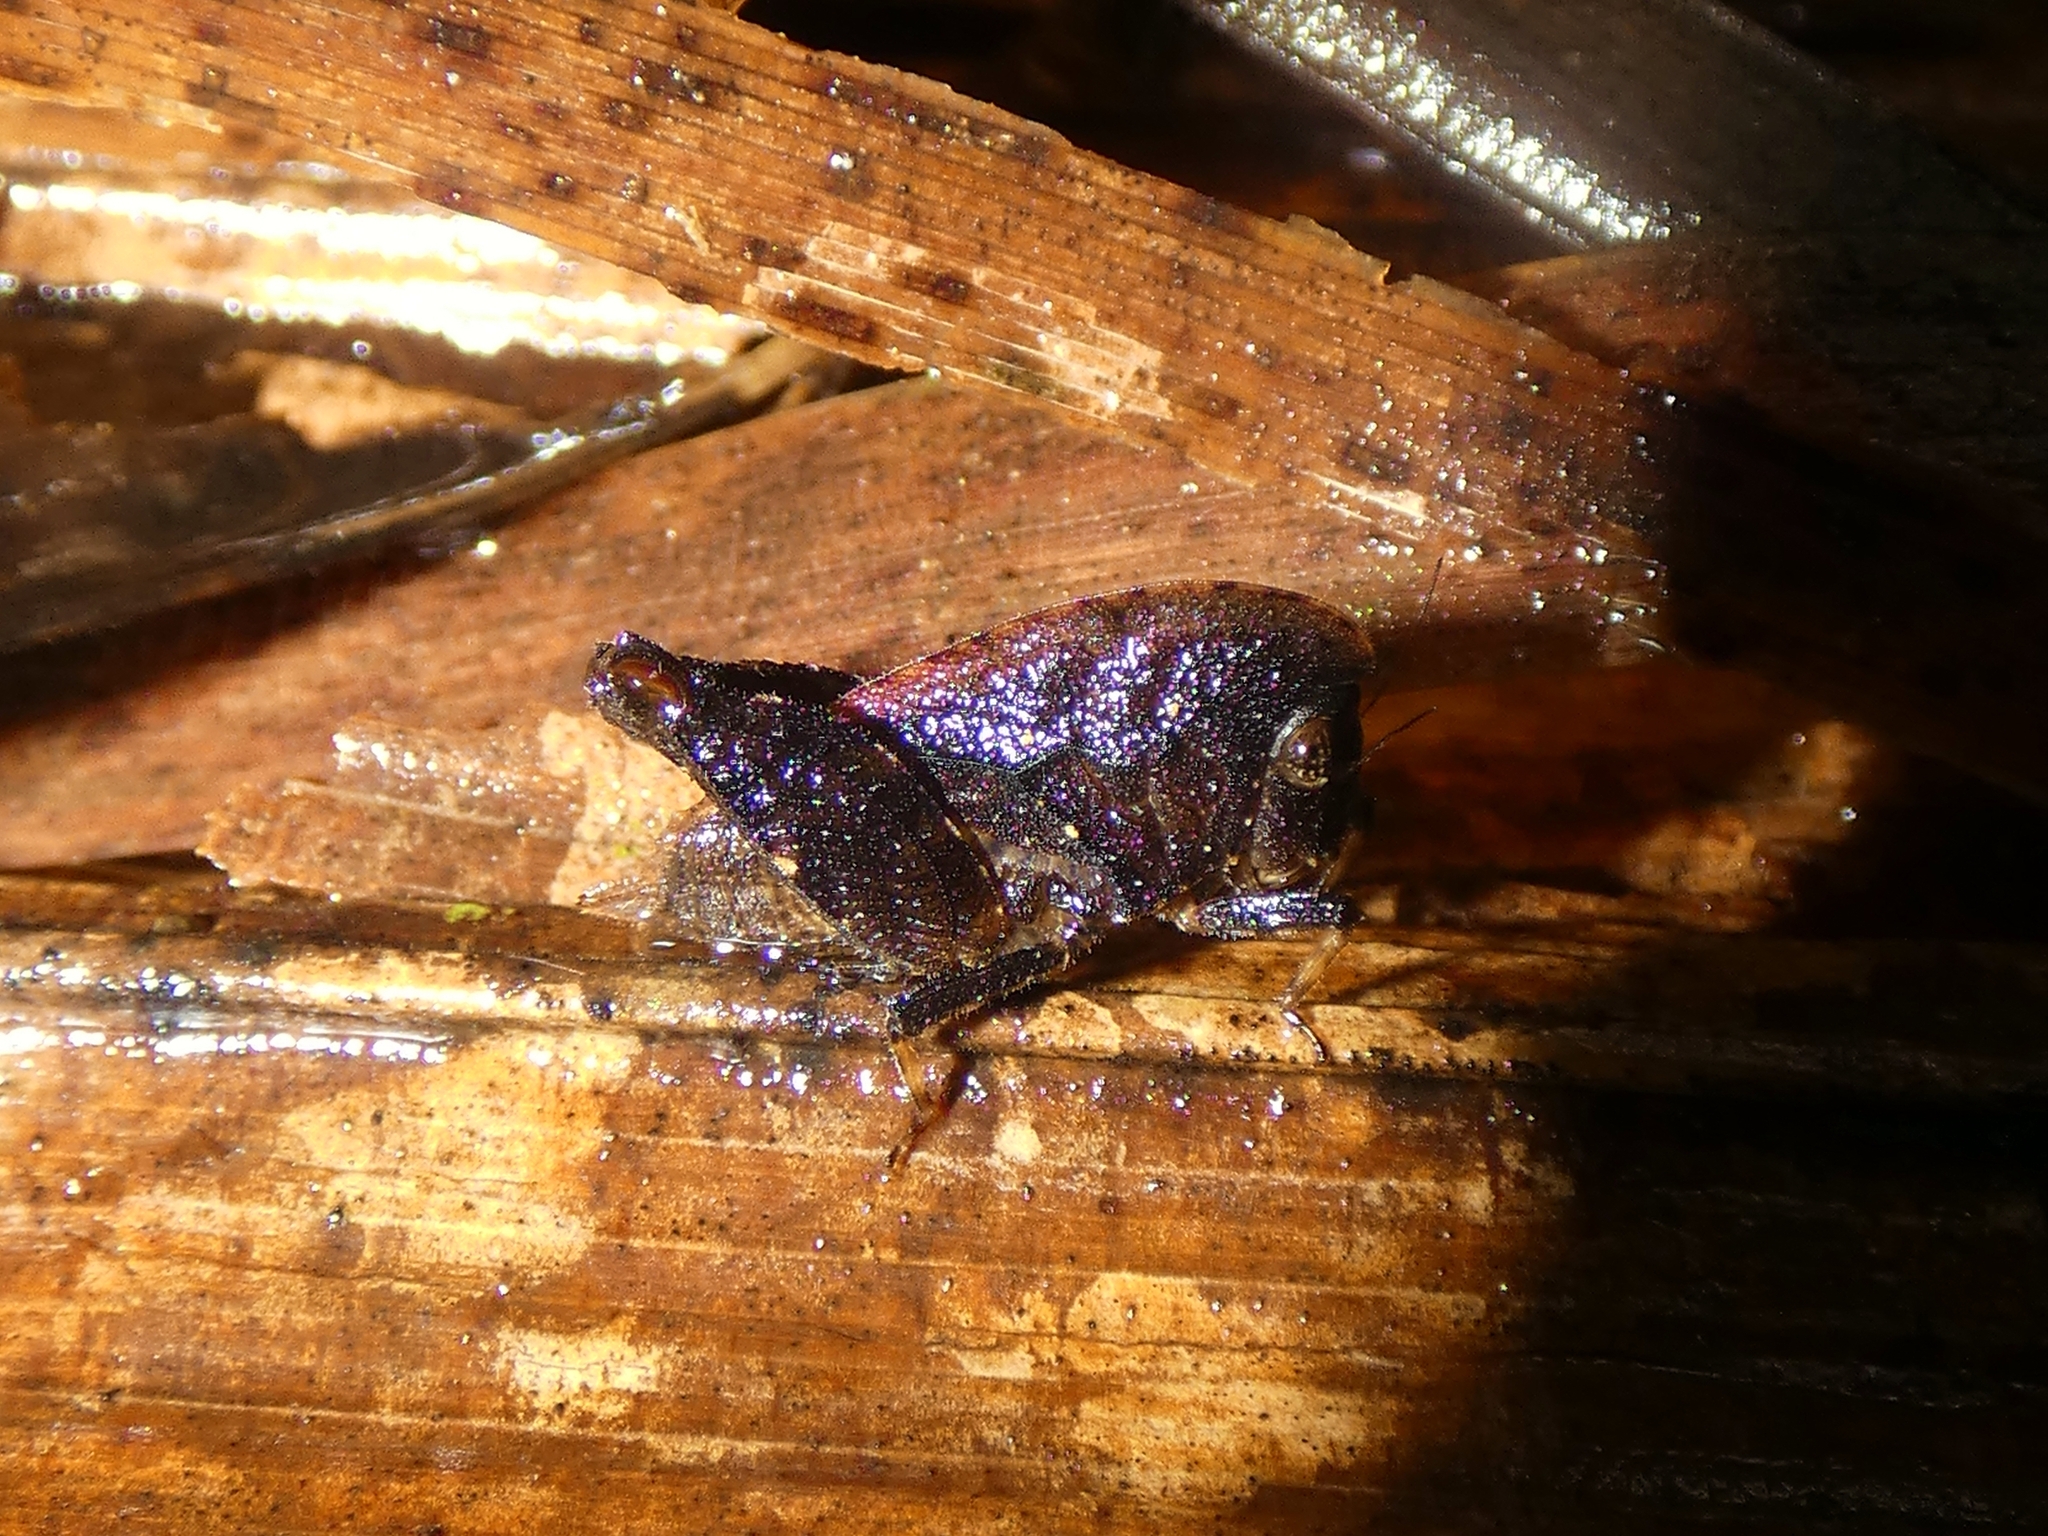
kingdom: Animalia
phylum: Arthropoda
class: Insecta
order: Orthoptera
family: Tetrigidae
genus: Selivinga
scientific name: Selivinga tribulata
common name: Tribulation helmed groundhopper
